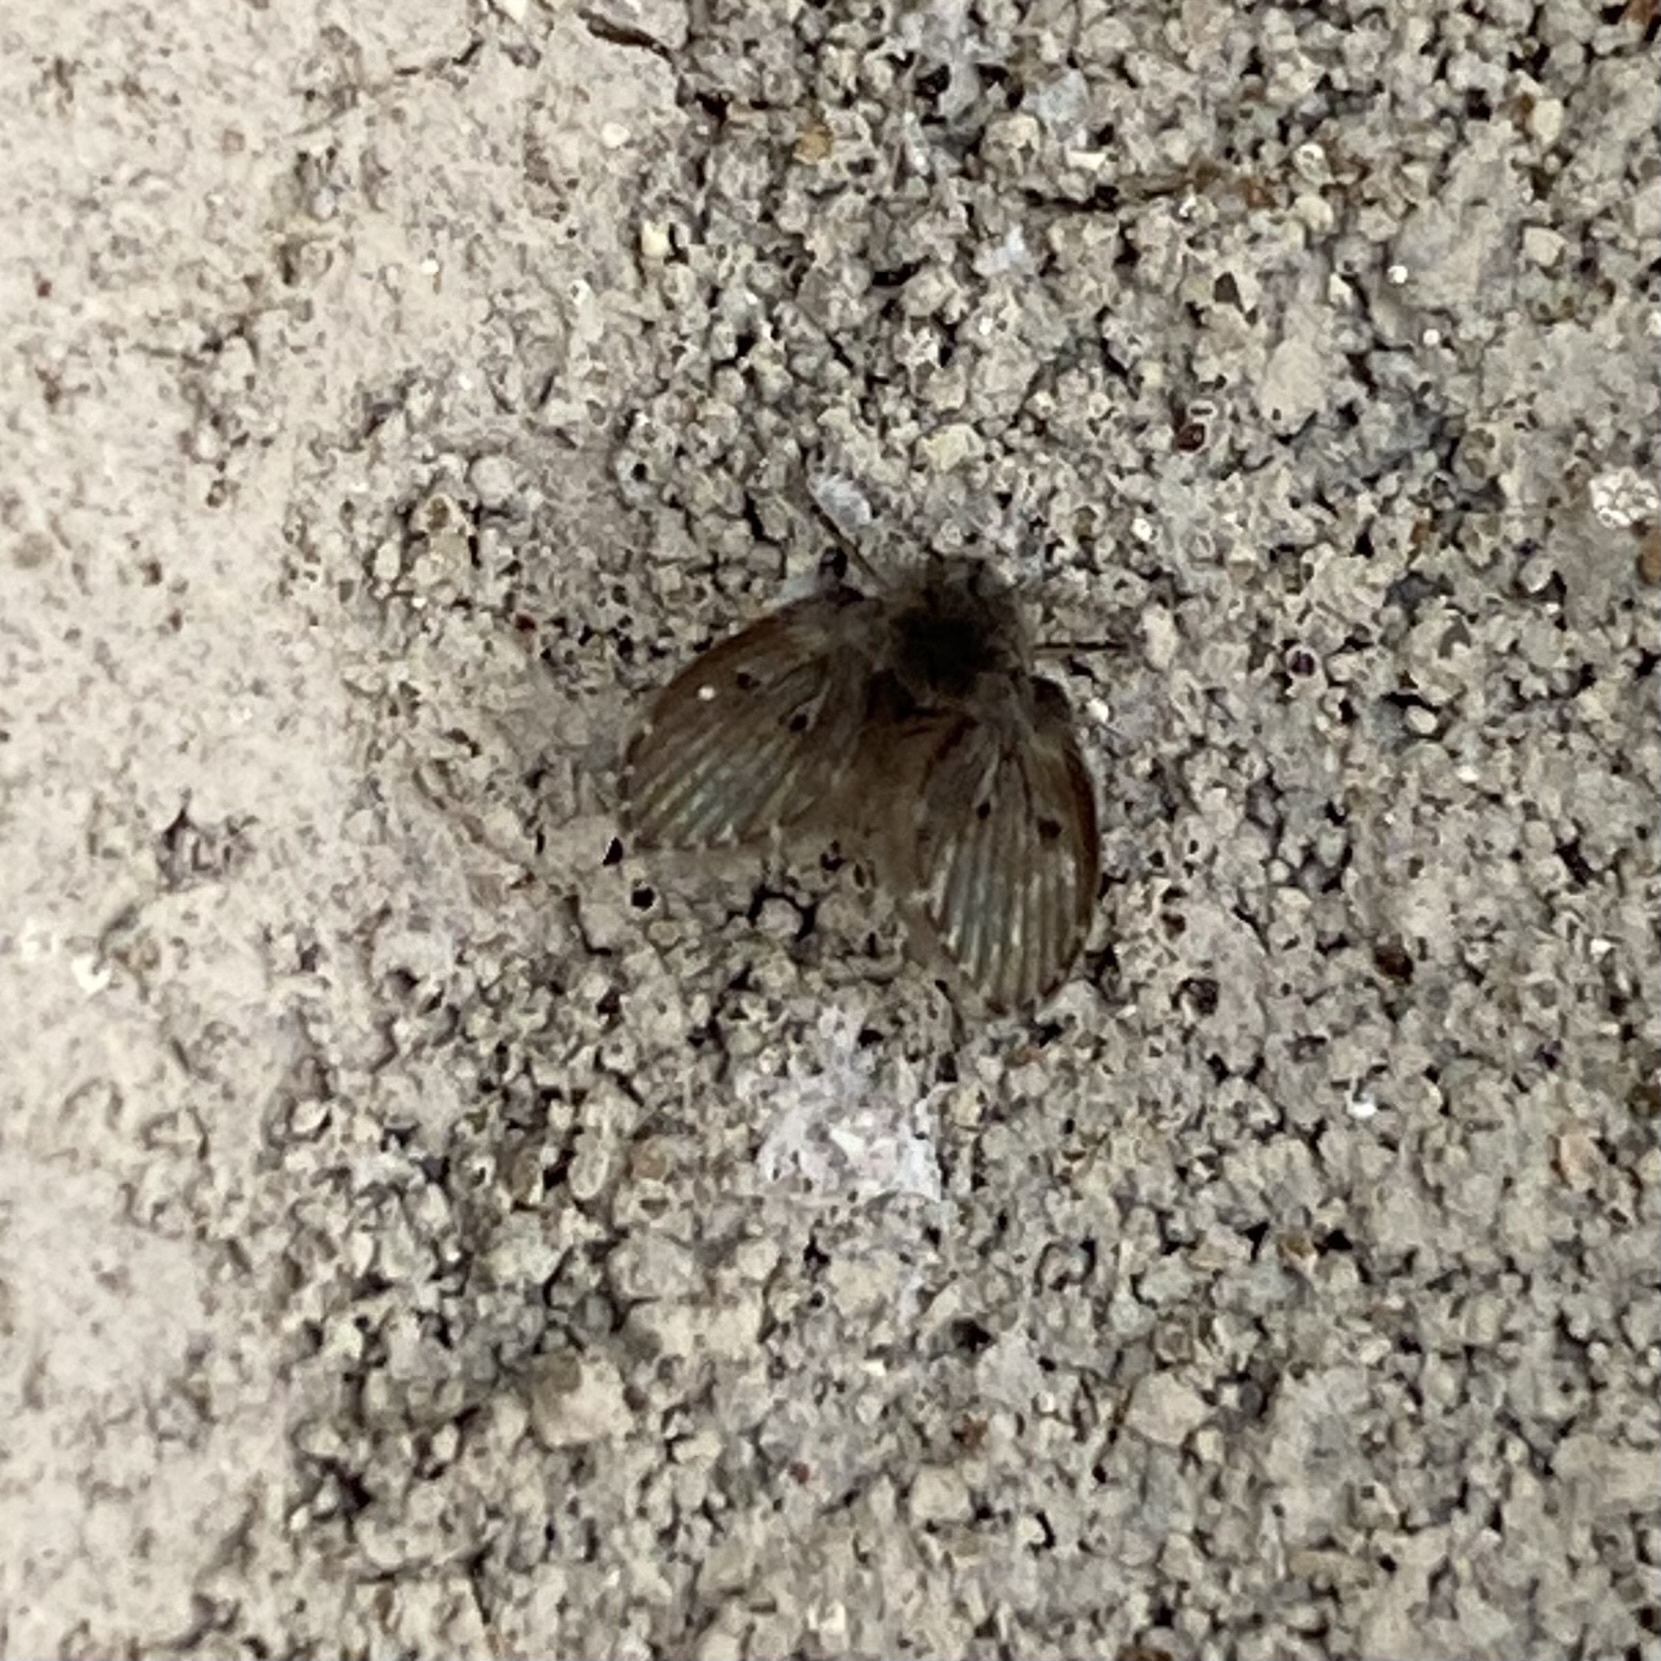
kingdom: Animalia
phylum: Arthropoda
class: Insecta
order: Diptera
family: Psychodidae
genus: Clogmia
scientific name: Clogmia albipunctatus
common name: White-spotted moth fly
